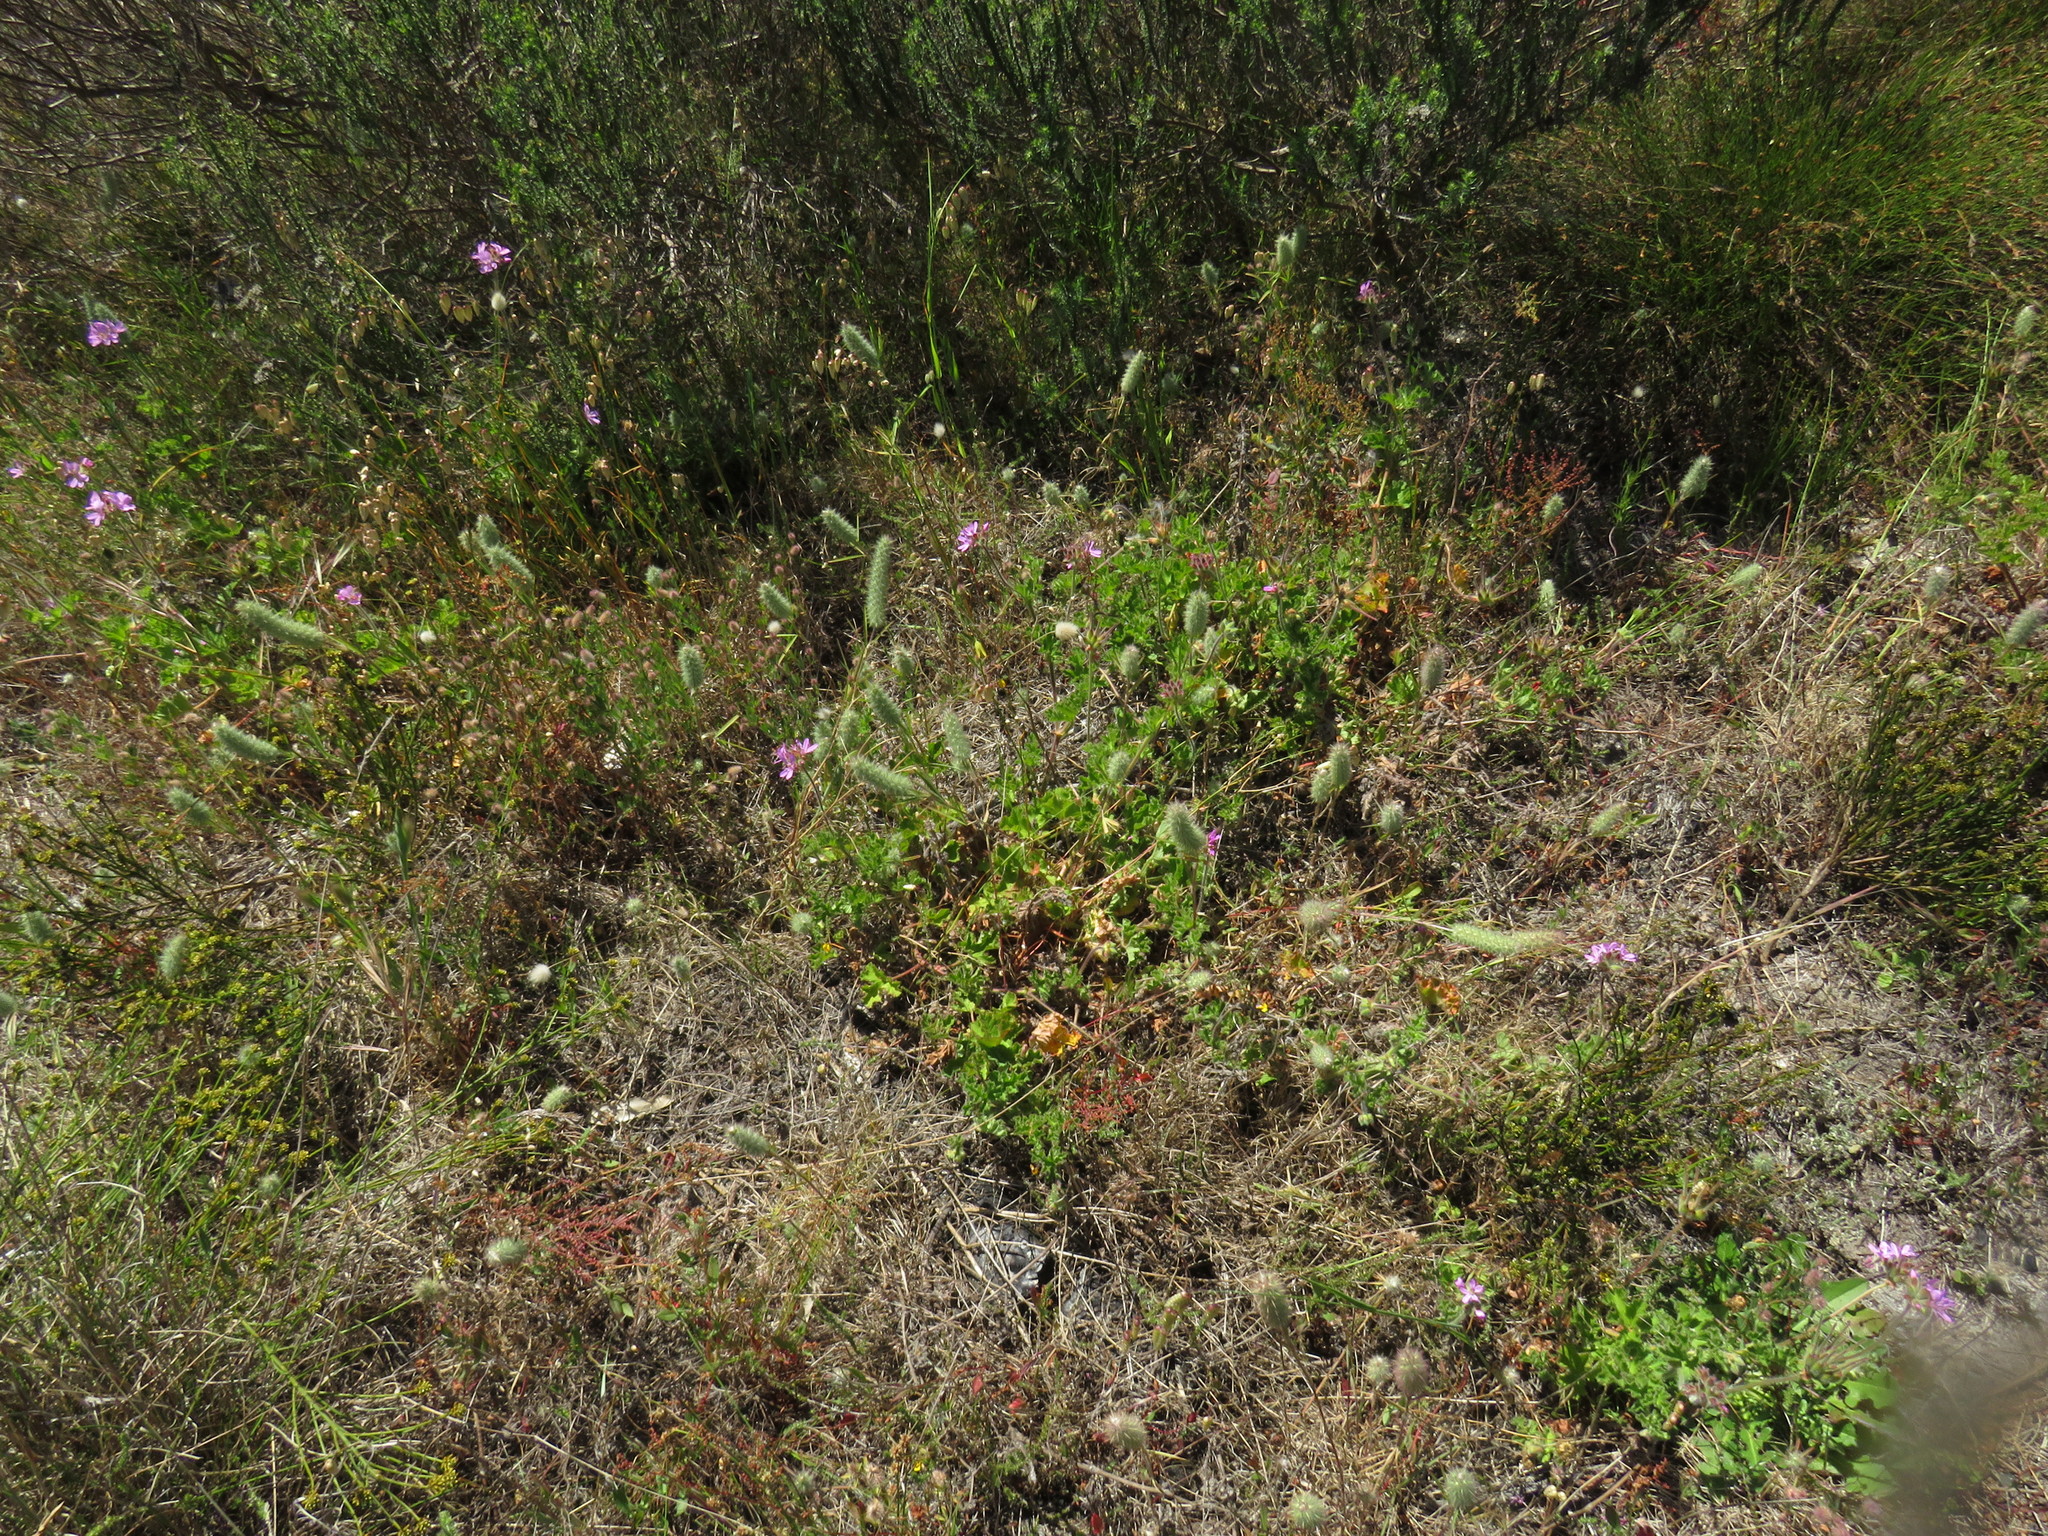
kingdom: Plantae
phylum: Tracheophyta
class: Magnoliopsida
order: Geraniales
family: Geraniaceae
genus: Pelargonium
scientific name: Pelargonium capitatum
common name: Rose scented geranium
